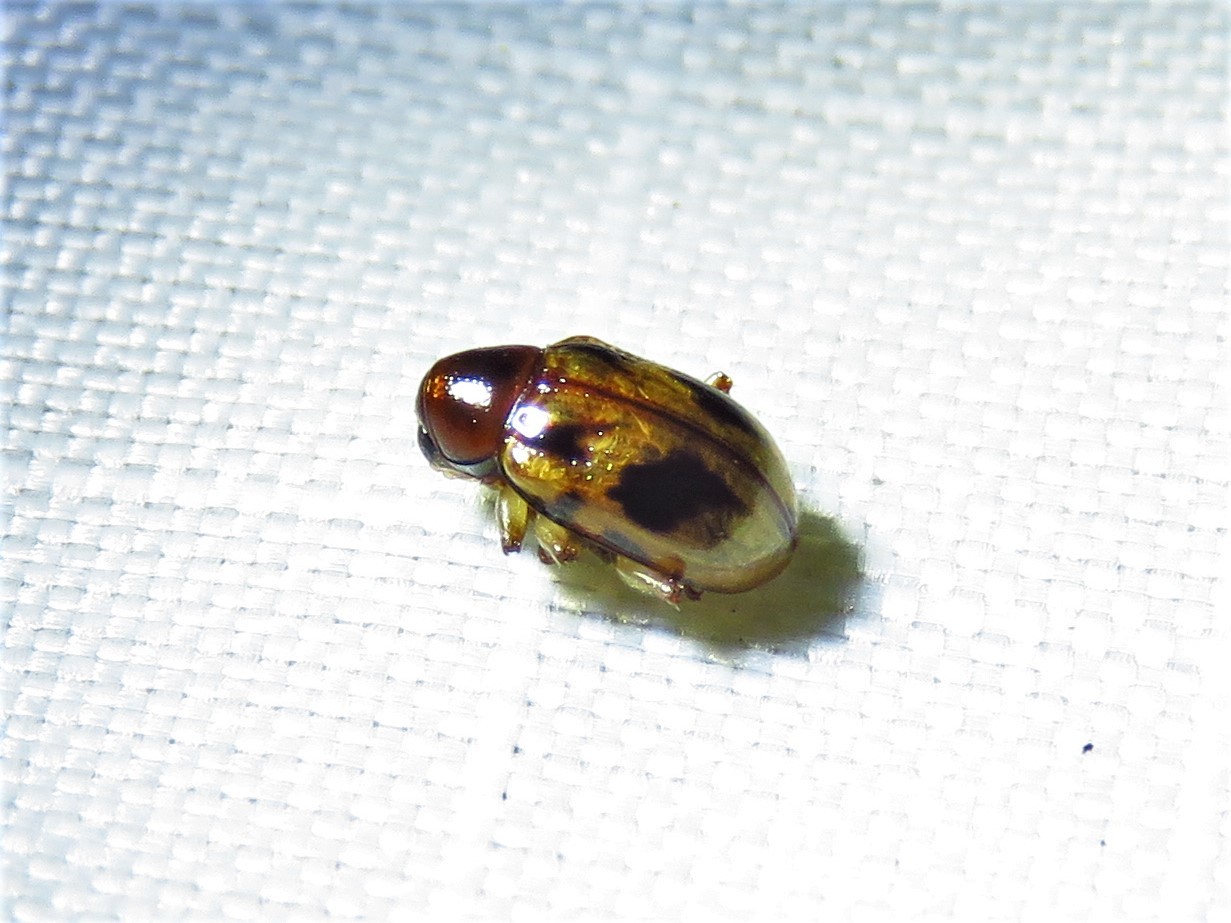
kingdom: Animalia
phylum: Arthropoda
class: Insecta
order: Coleoptera
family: Chrysomelidae
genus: Paria
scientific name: Paria fragariae
